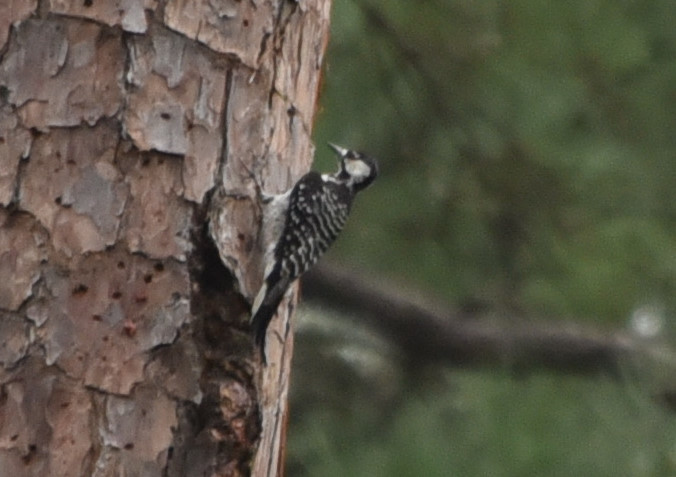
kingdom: Animalia
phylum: Chordata
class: Aves
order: Piciformes
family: Picidae
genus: Leuconotopicus
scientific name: Leuconotopicus borealis
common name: Red-cockaded woodpecker
